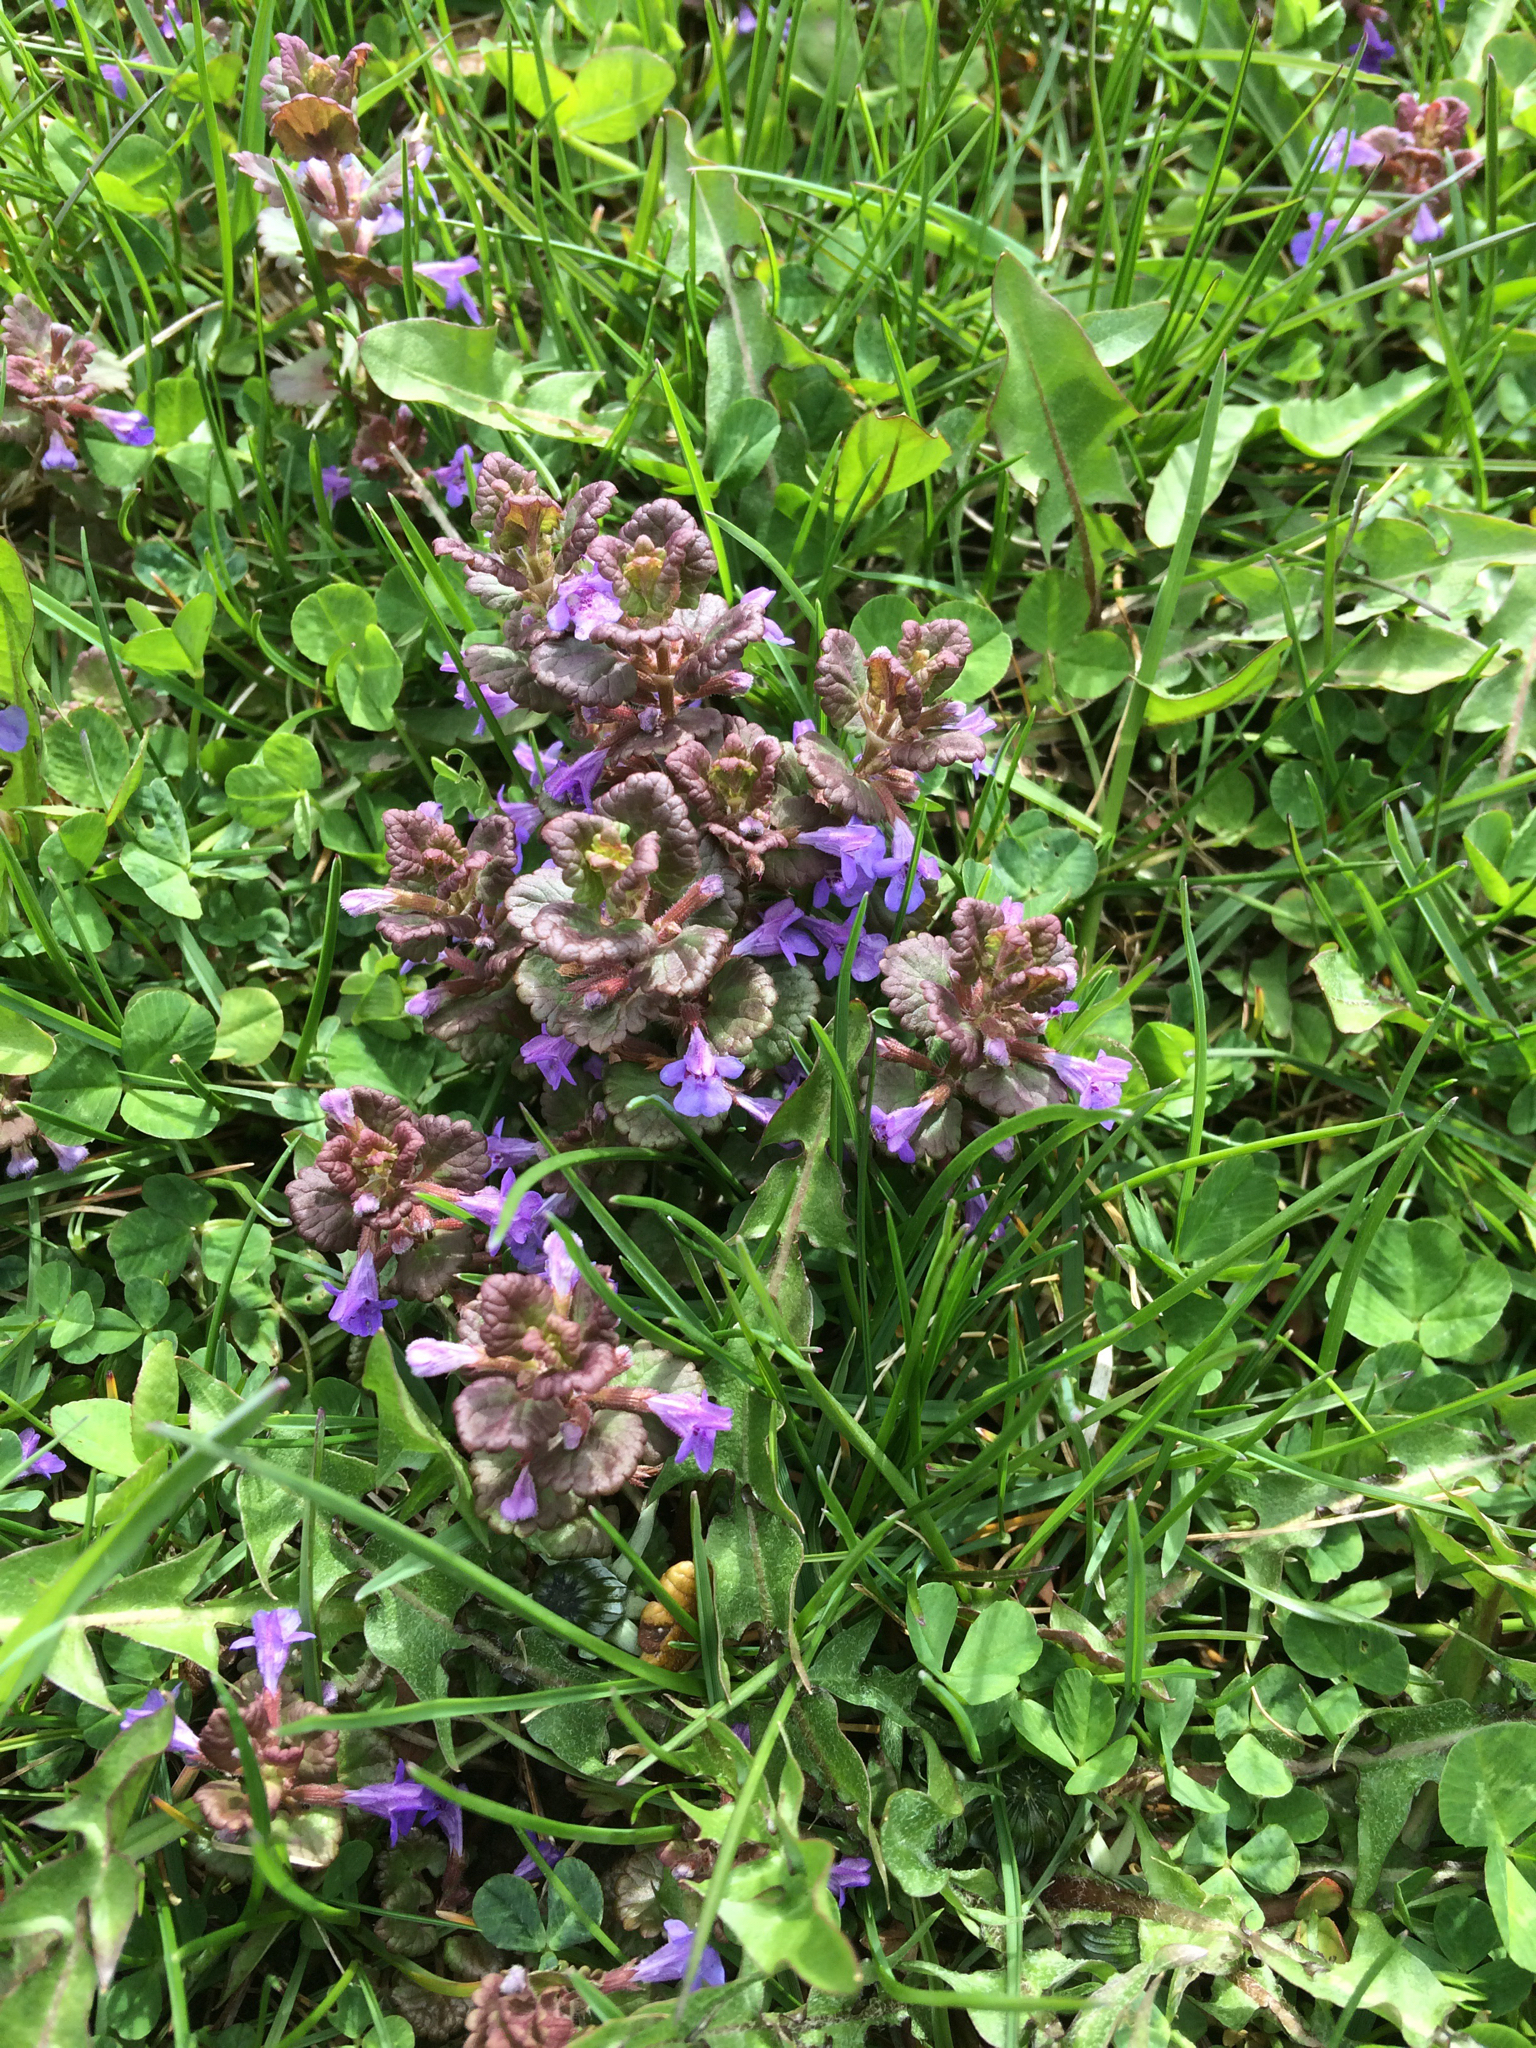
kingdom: Plantae
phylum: Tracheophyta
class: Magnoliopsida
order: Lamiales
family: Lamiaceae
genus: Glechoma
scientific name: Glechoma hederacea
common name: Ground ivy
